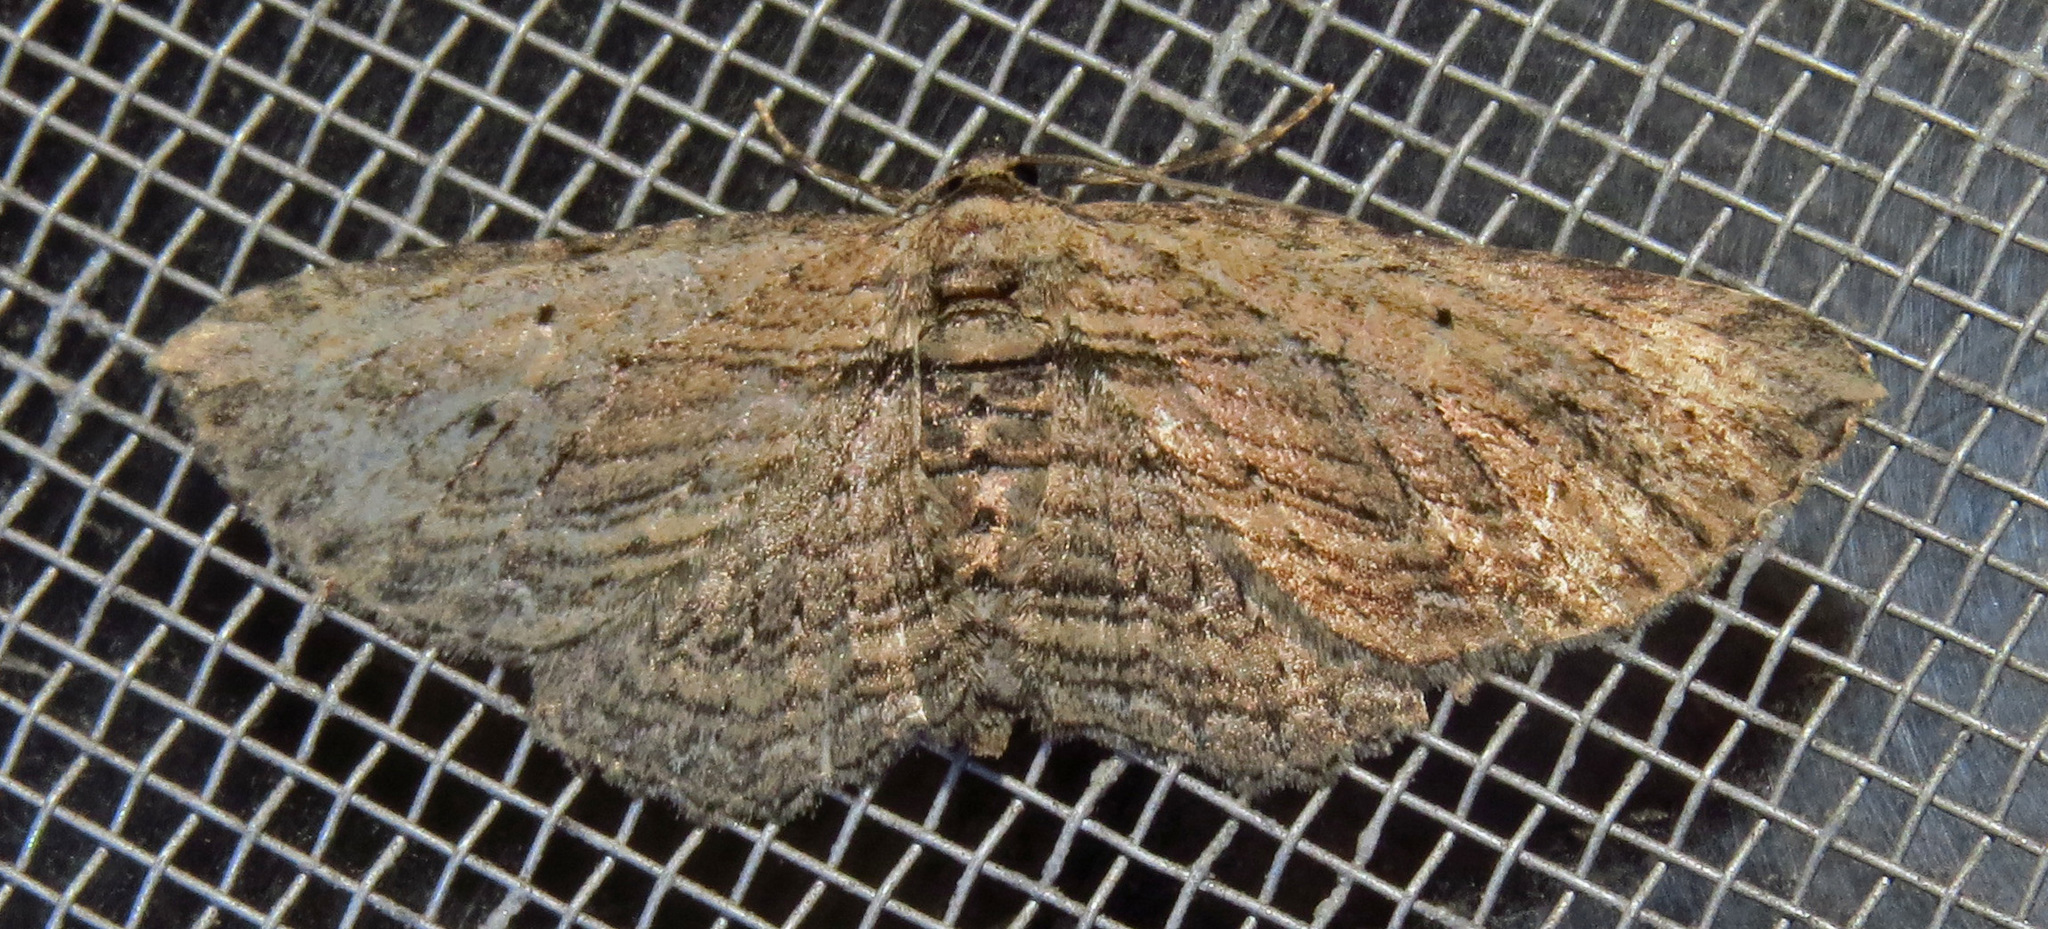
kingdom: Animalia
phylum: Arthropoda
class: Insecta
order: Lepidoptera
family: Geometridae
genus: Horisme
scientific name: Horisme intestinata
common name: Brown bark carpet
